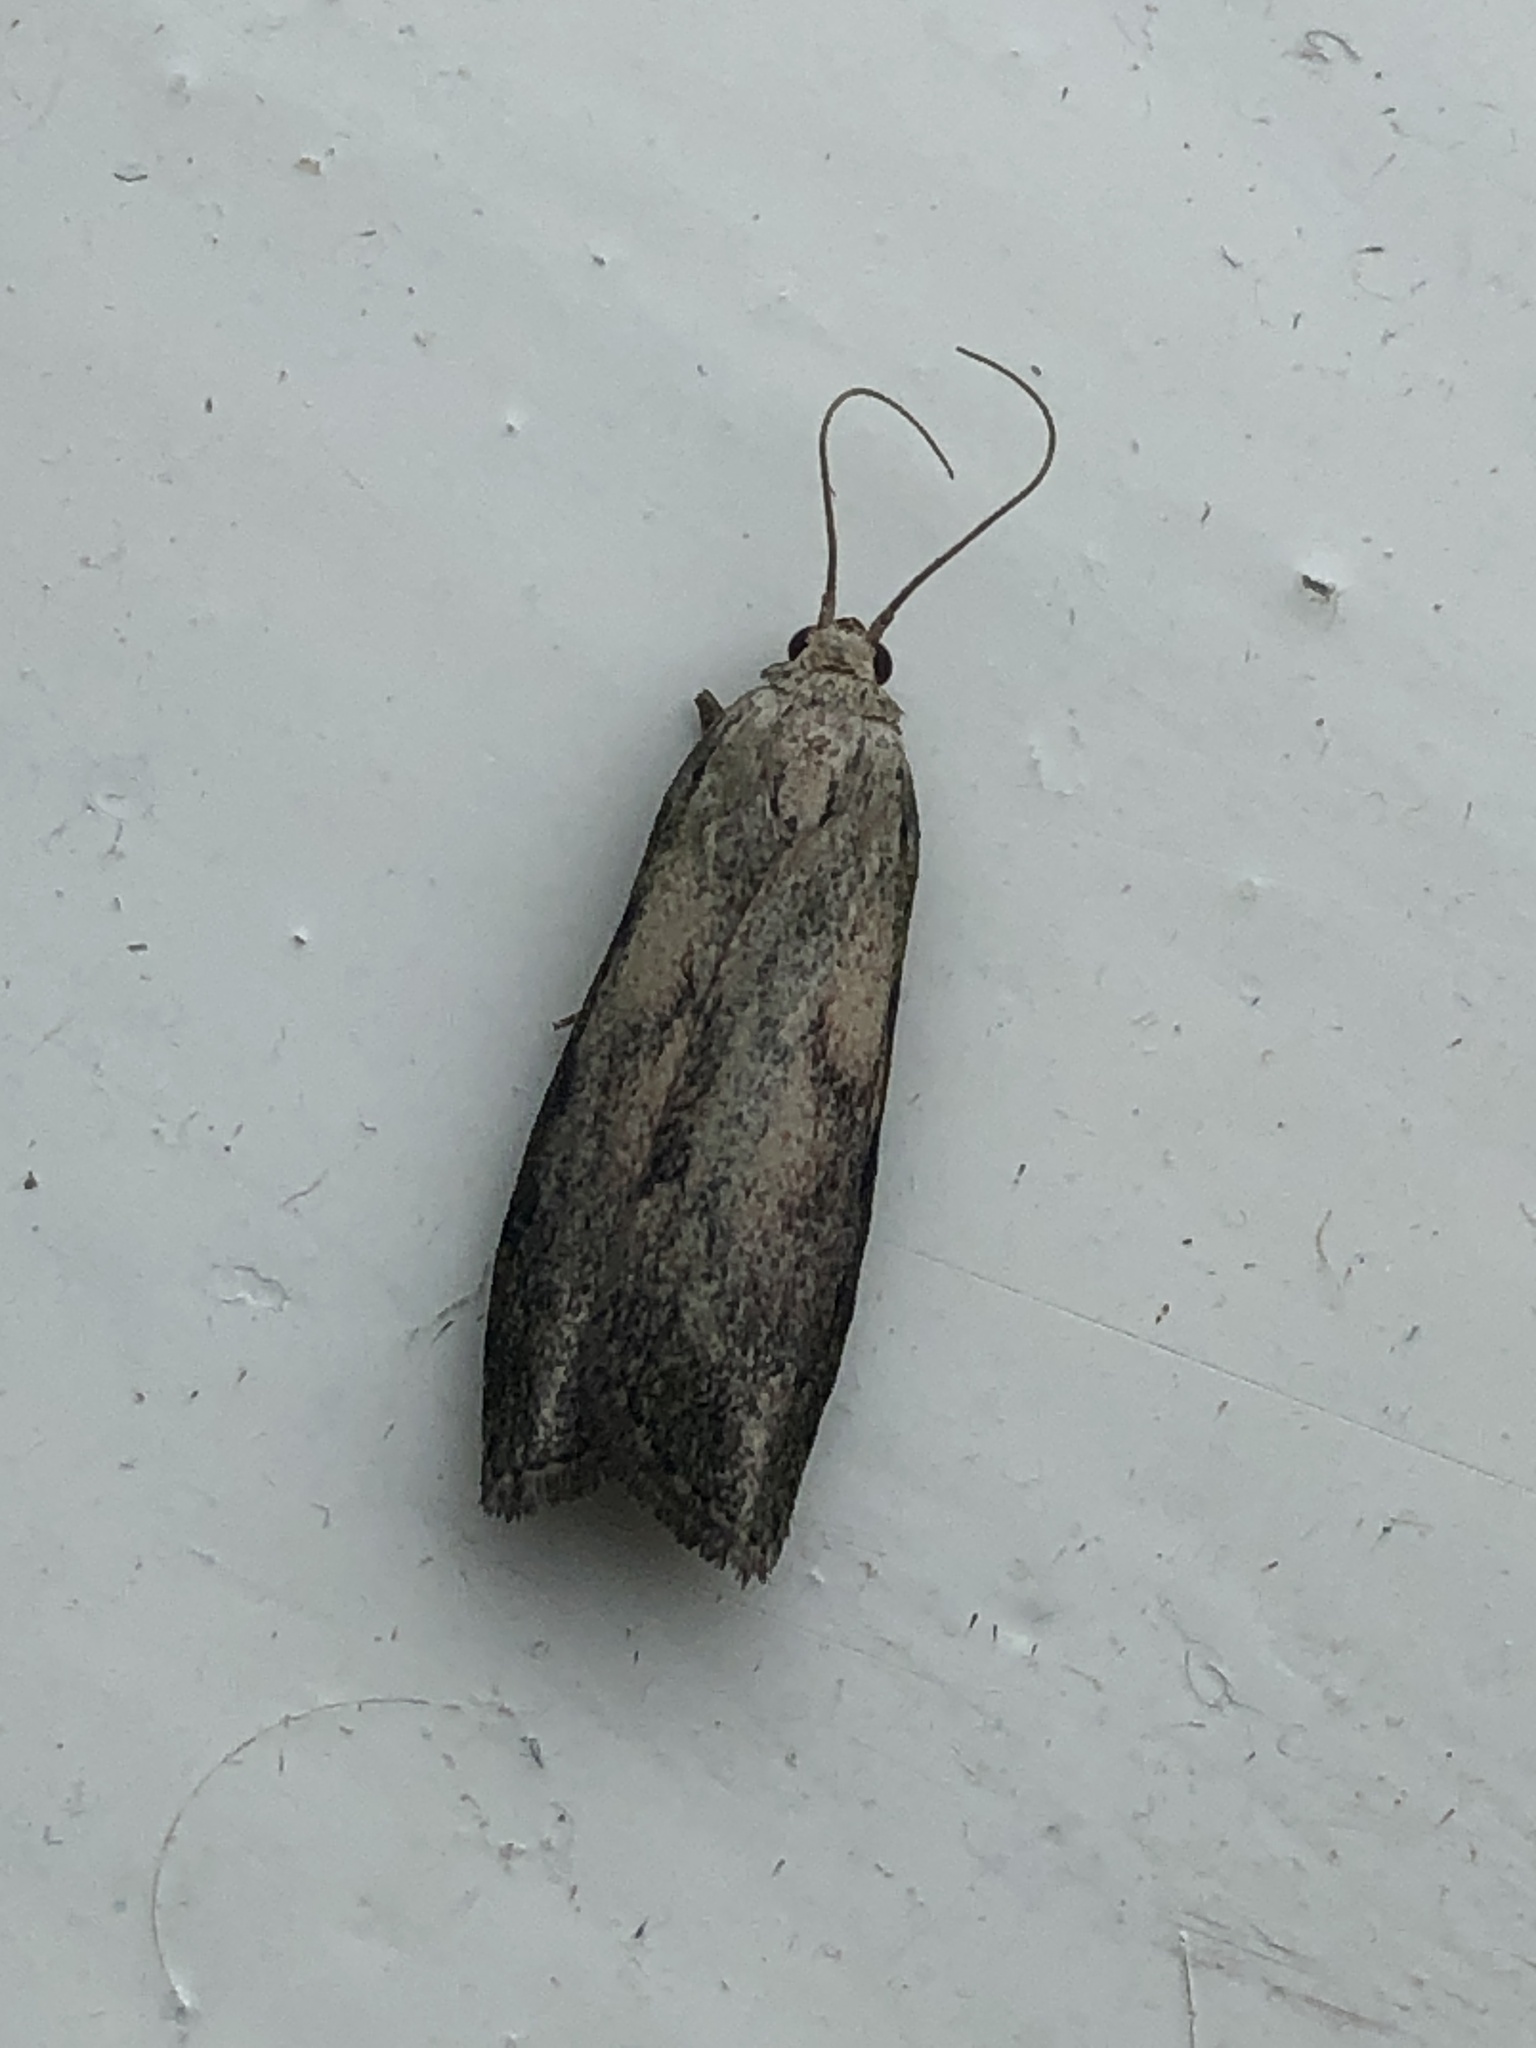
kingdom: Animalia
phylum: Arthropoda
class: Insecta
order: Lepidoptera
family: Pyralidae
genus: Aphomia
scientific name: Aphomia sociella
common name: Bee moth
